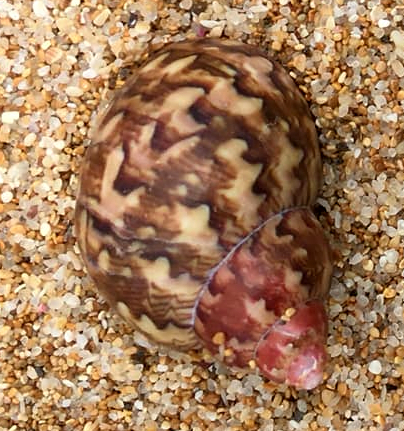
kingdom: Animalia
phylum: Mollusca
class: Gastropoda
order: Trochida
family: Phasianellidae
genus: Phasianella
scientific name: Phasianella ventricosa
